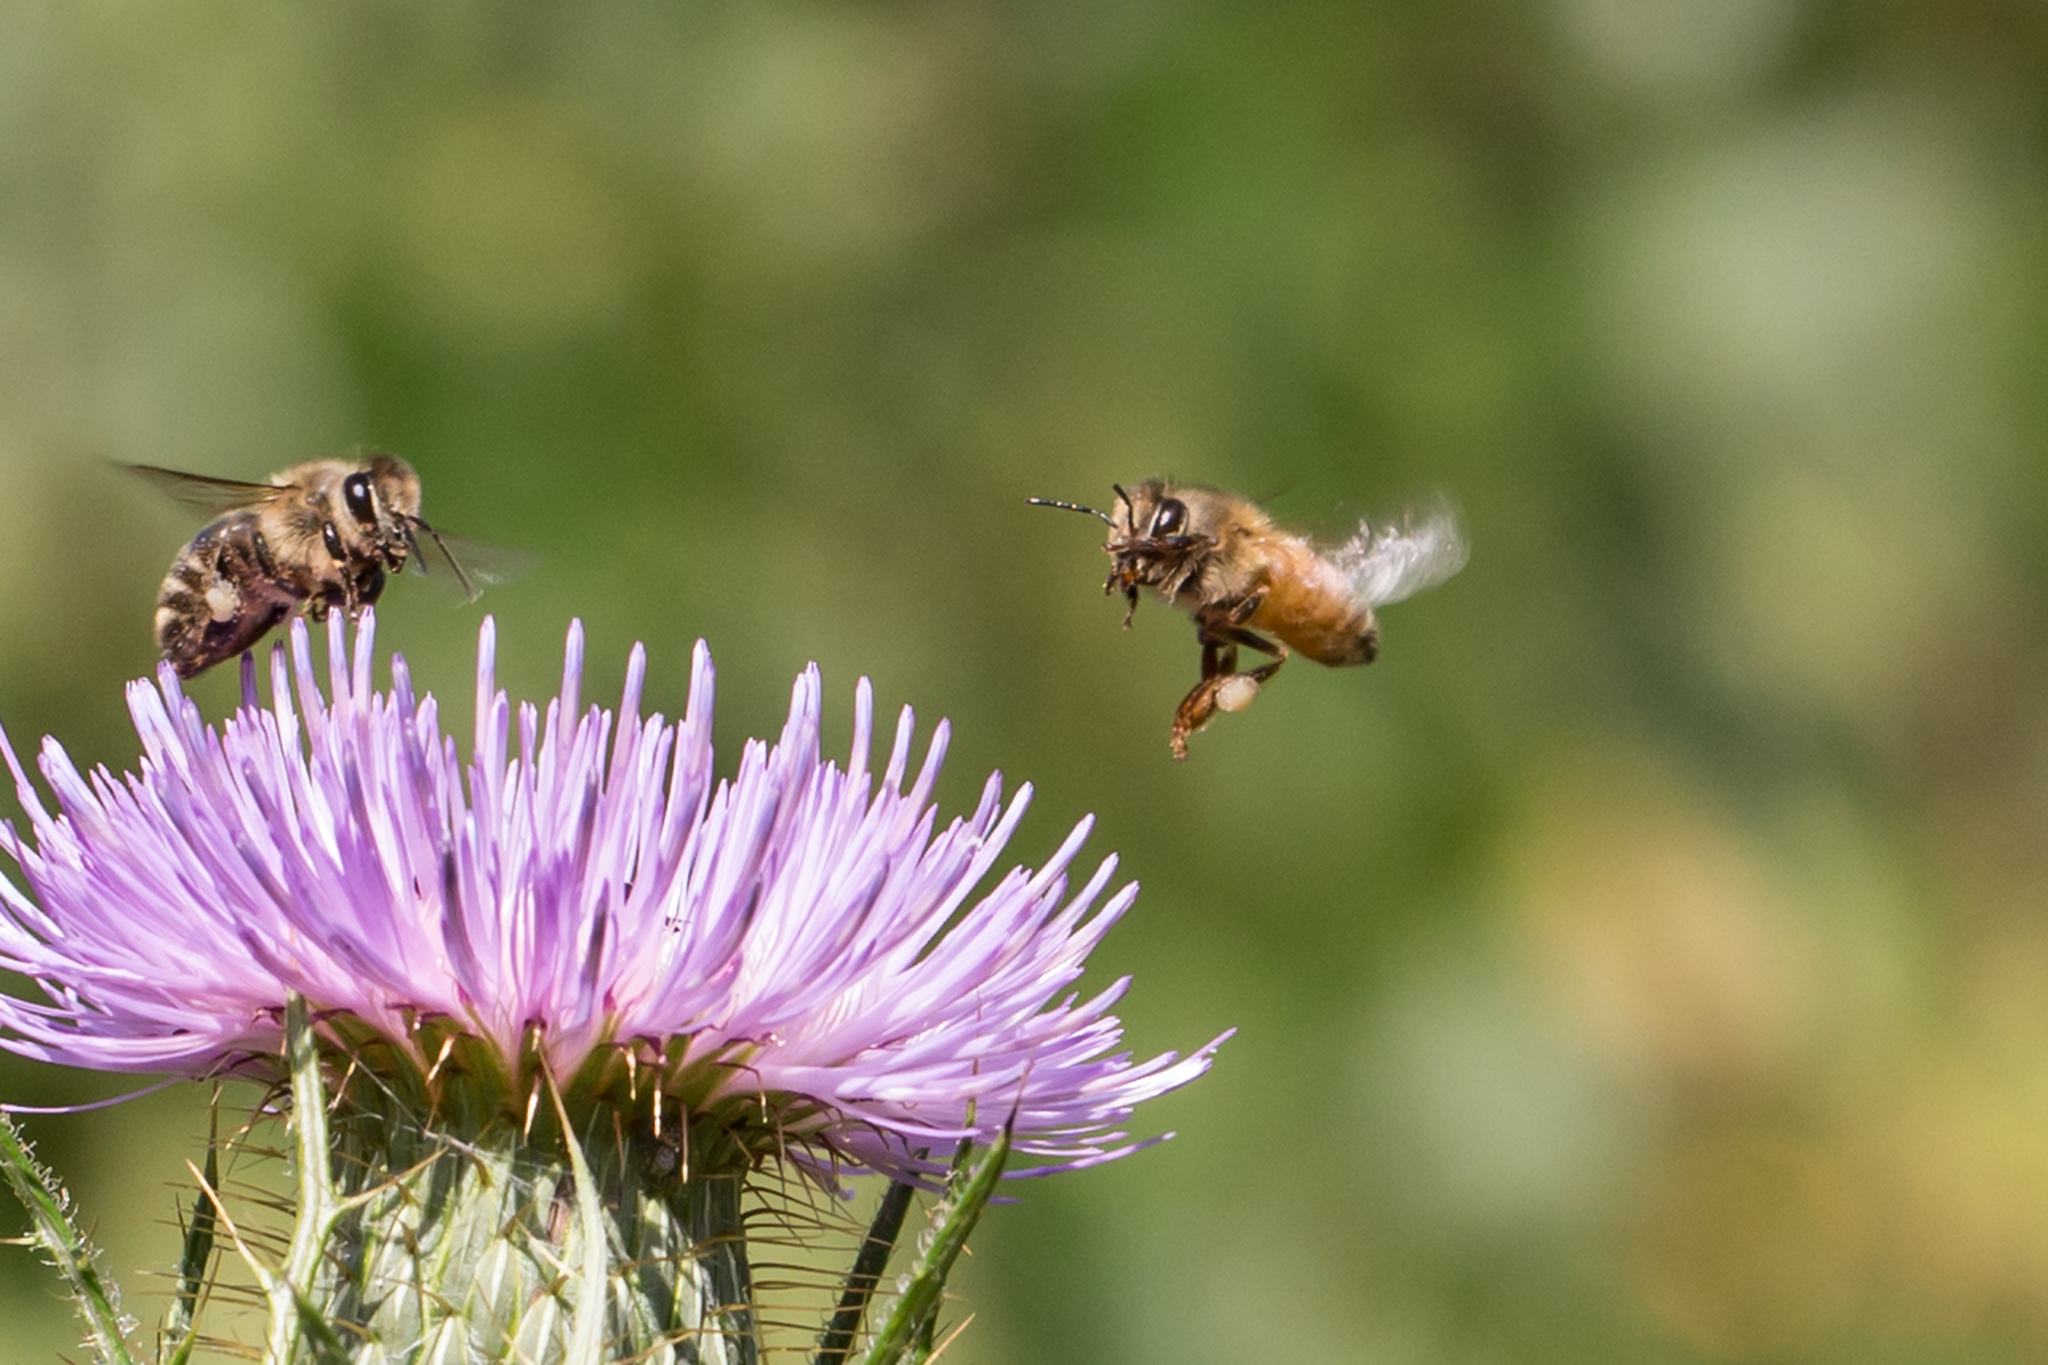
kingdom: Animalia
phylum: Arthropoda
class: Insecta
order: Hymenoptera
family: Apidae
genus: Apis
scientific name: Apis mellifera
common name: Honey bee
